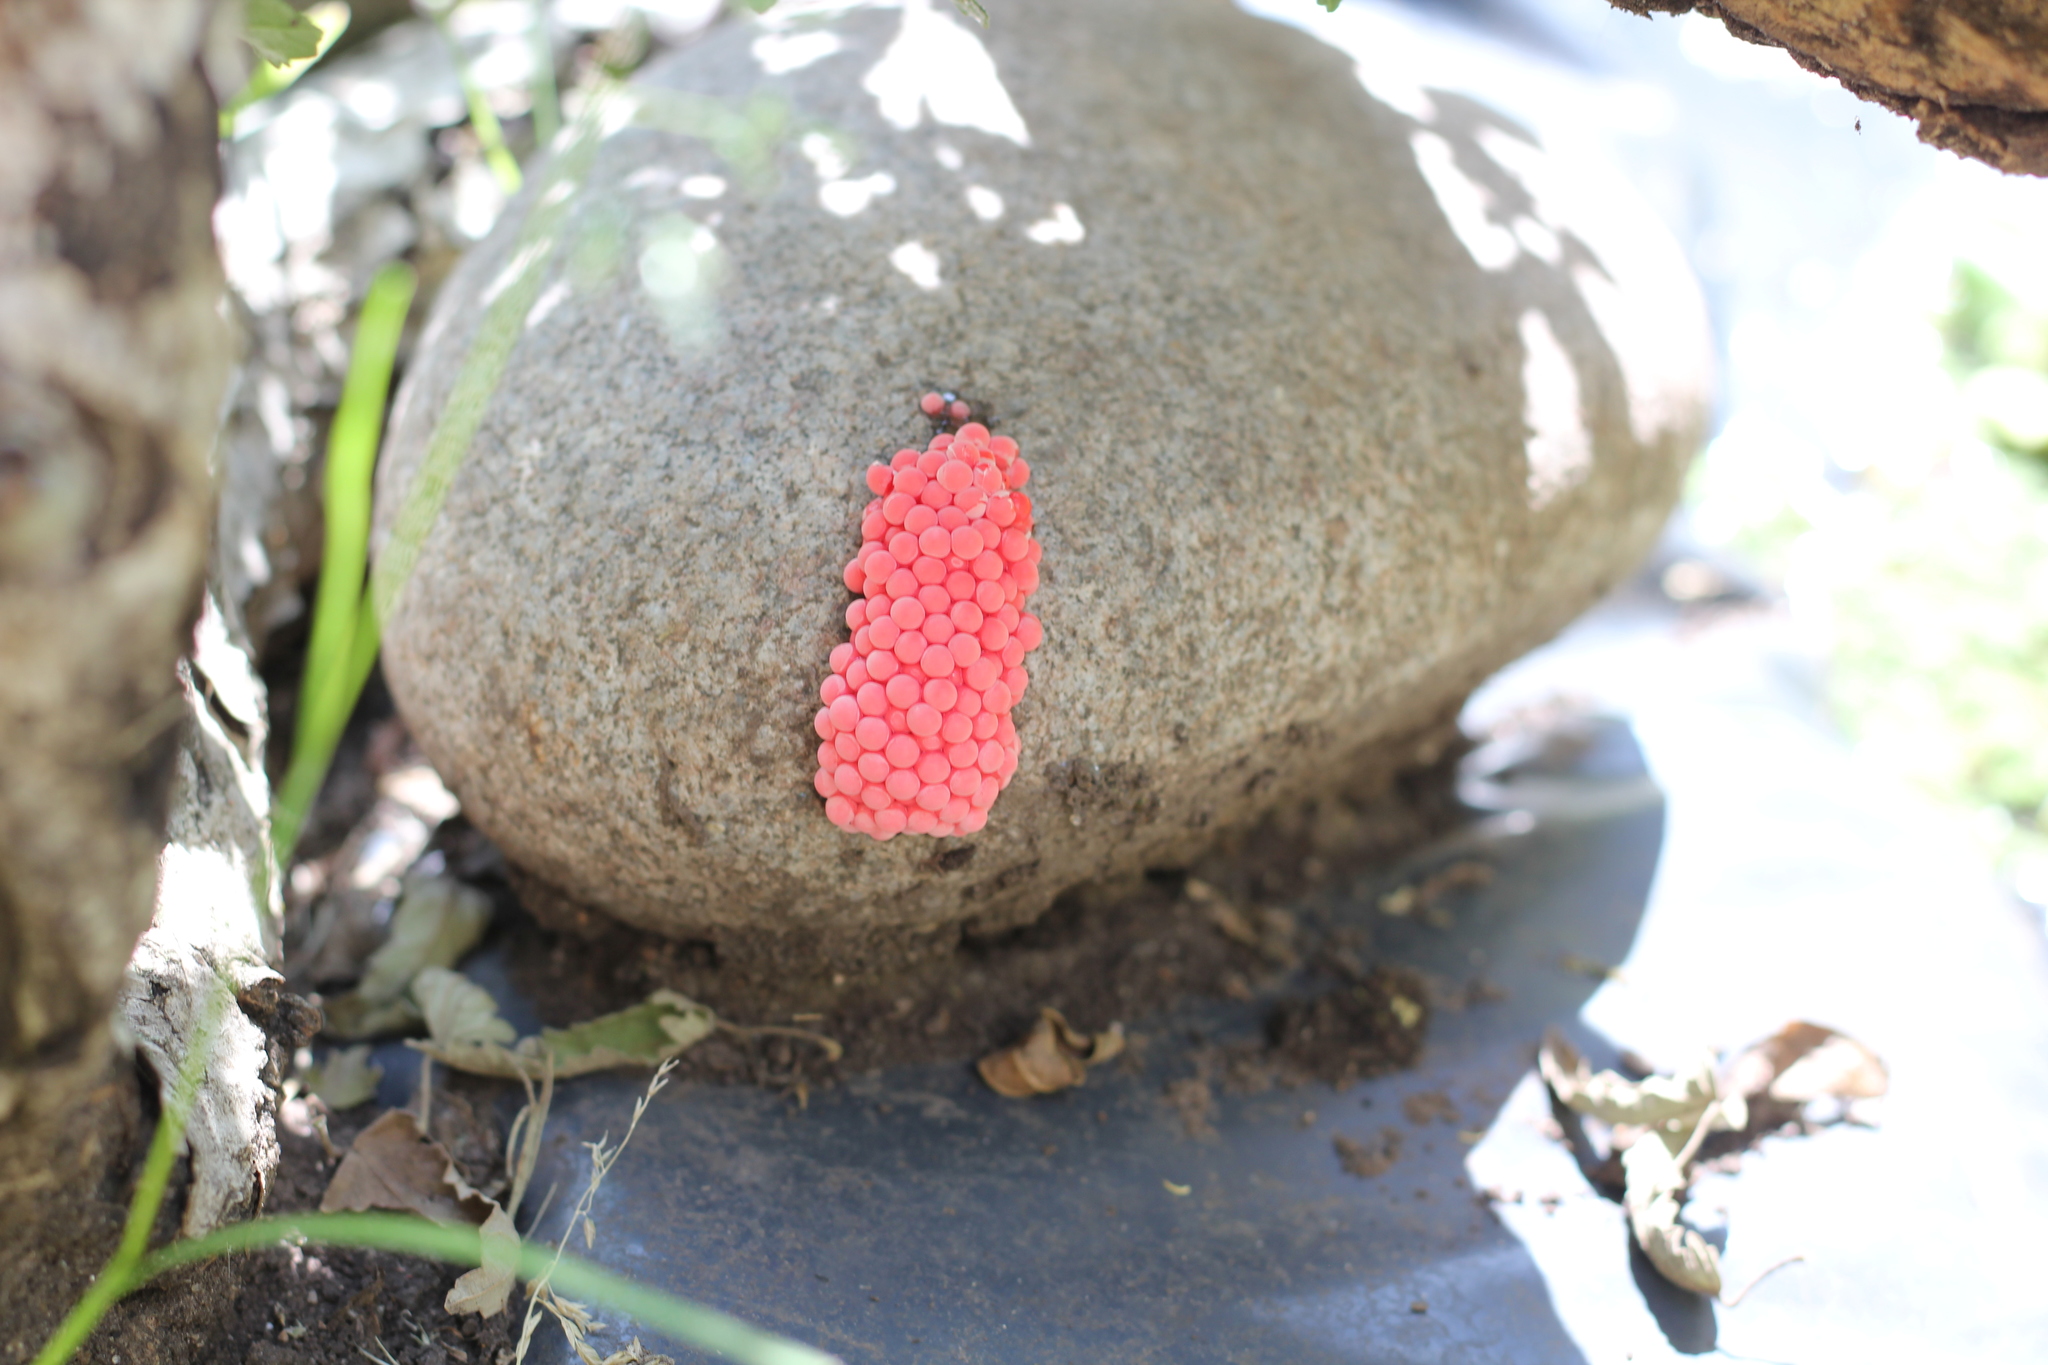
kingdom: Animalia
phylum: Mollusca
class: Gastropoda
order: Architaenioglossa
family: Ampullariidae
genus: Pomacea
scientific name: Pomacea canaliculata
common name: Channeled applesnail
